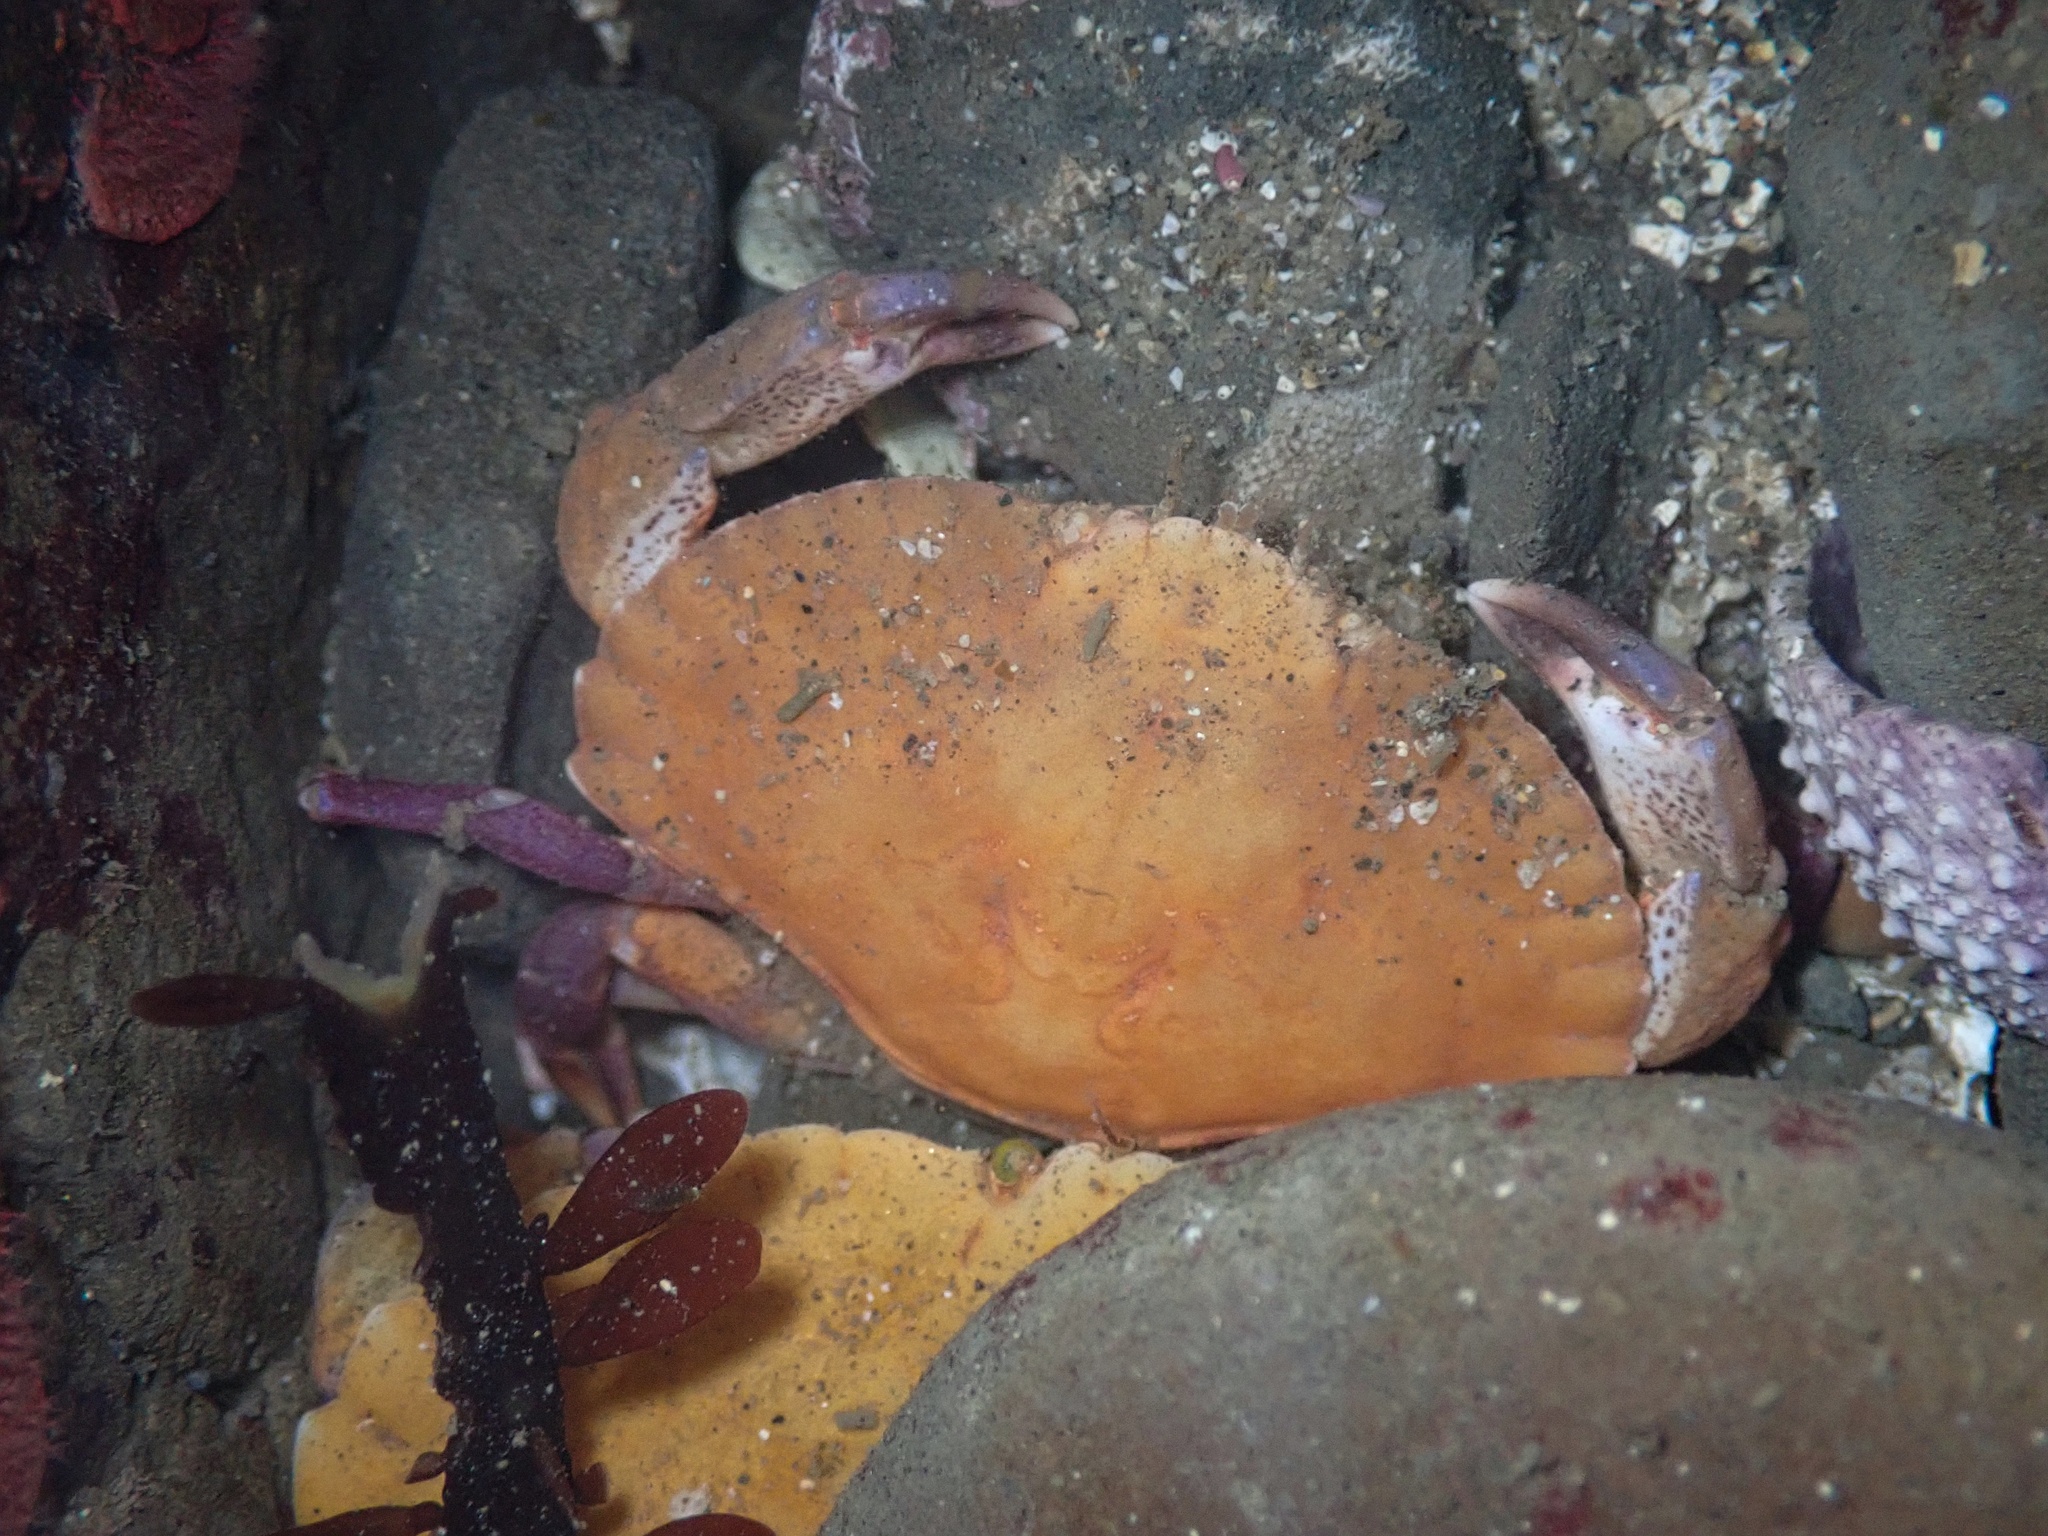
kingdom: Animalia
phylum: Arthropoda
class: Malacostraca
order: Decapoda
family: Cancridae
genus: Cancer
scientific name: Cancer productus
